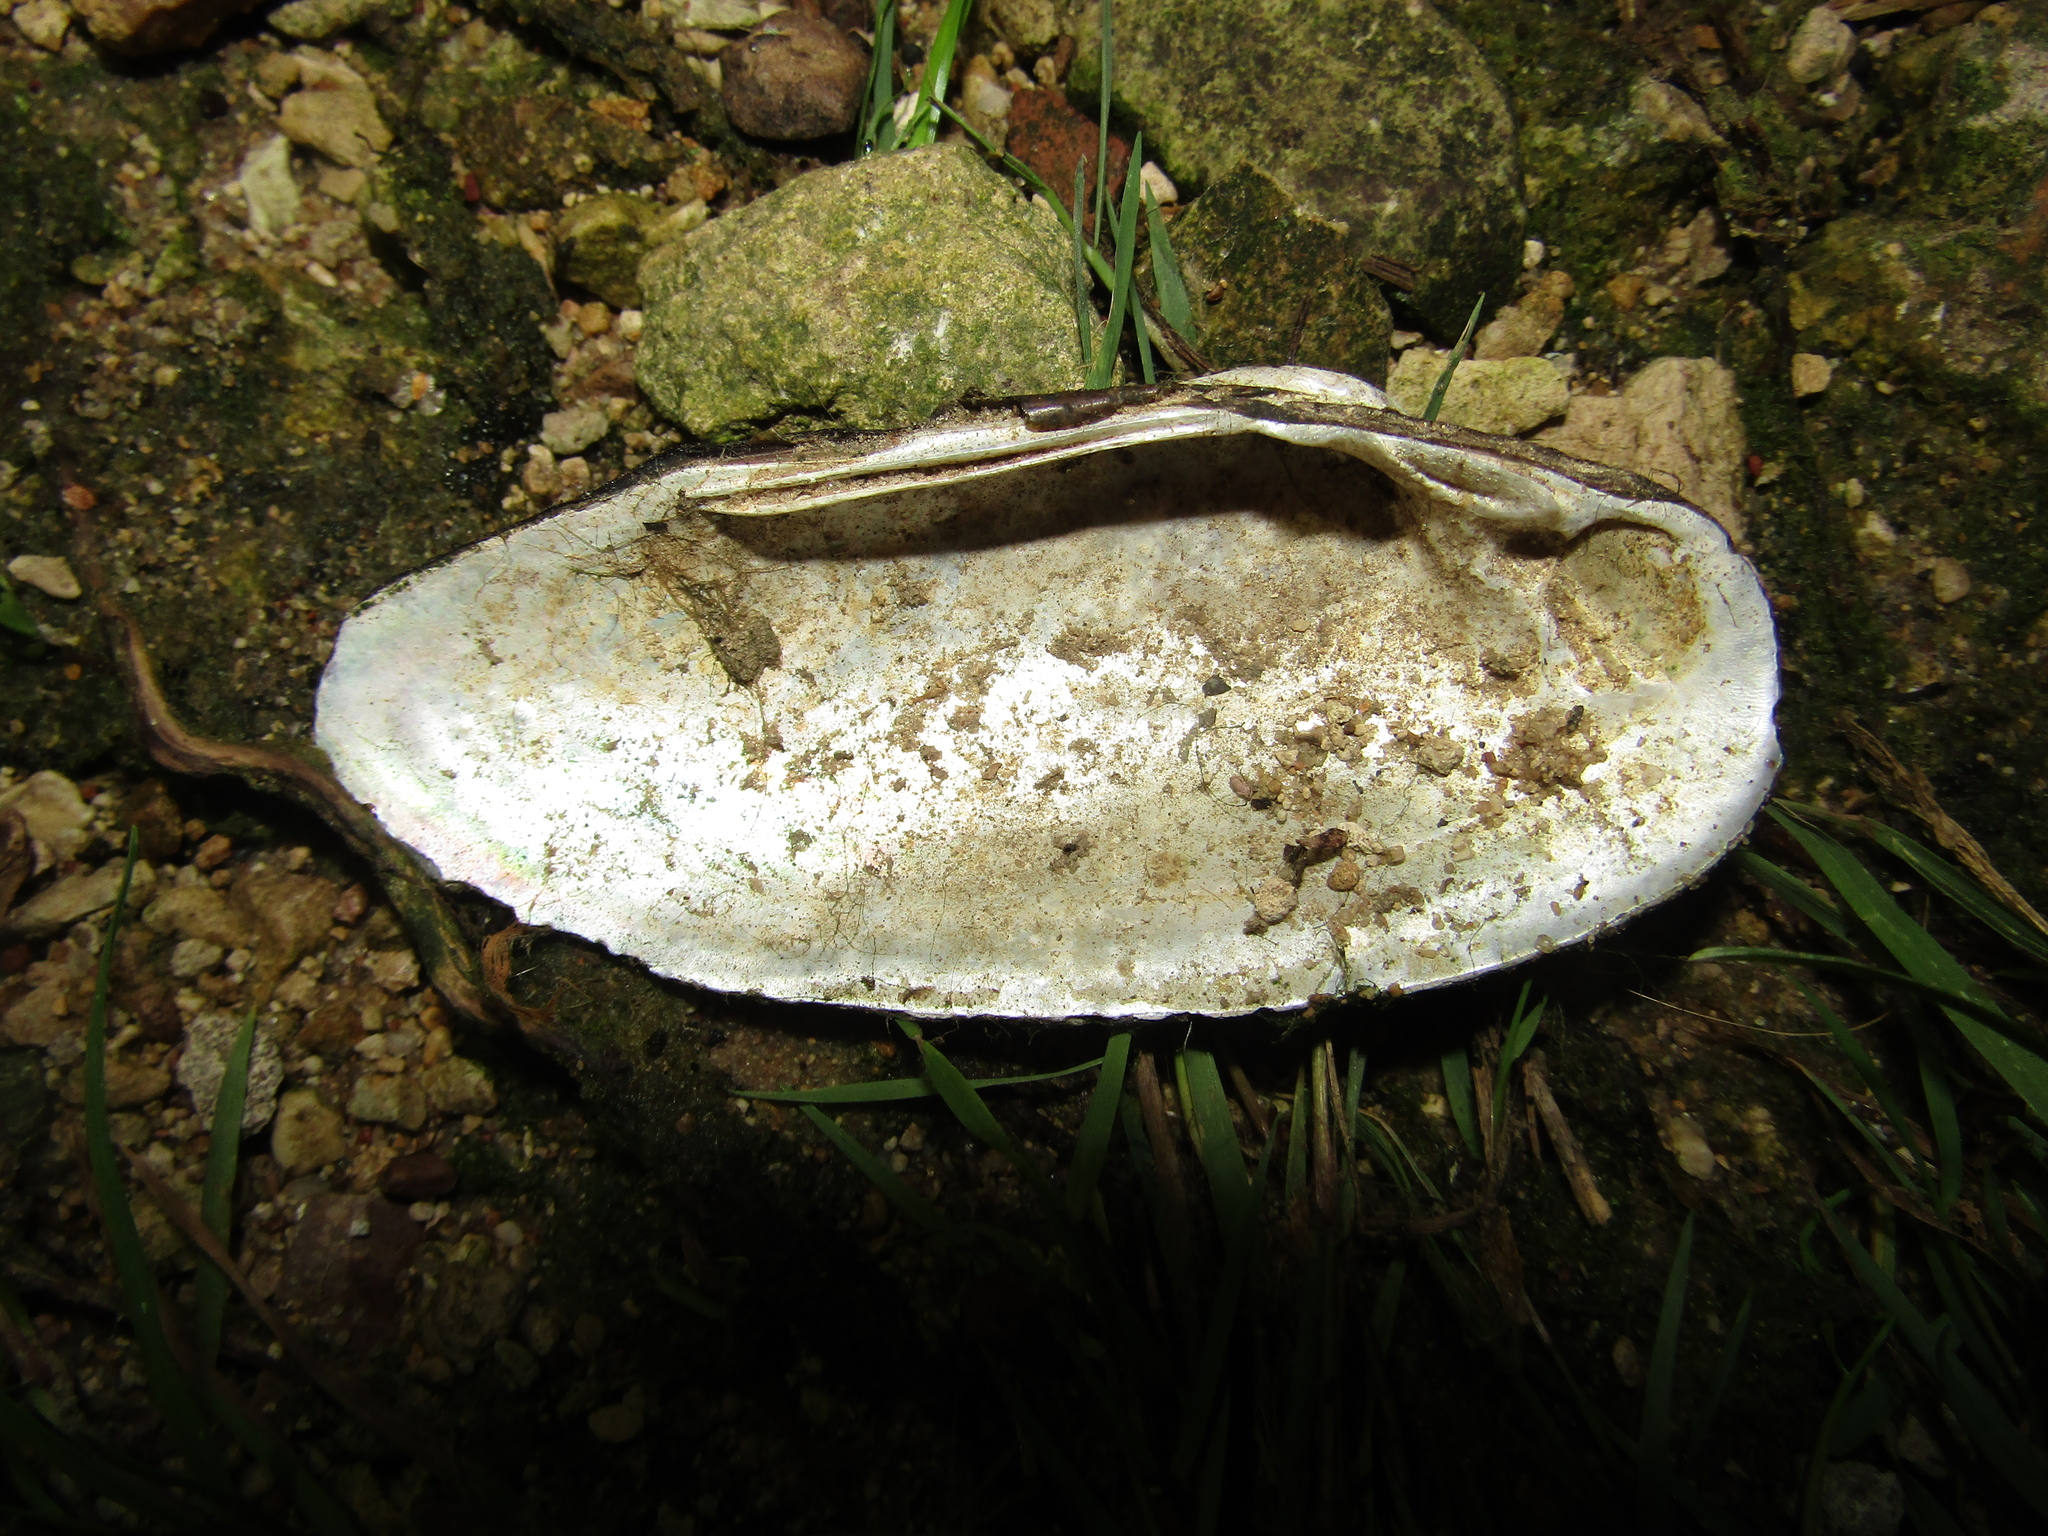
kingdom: Animalia
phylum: Mollusca
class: Bivalvia
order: Unionida
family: Unionidae
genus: Unio
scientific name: Unio pictorum
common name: Painter's mussel
